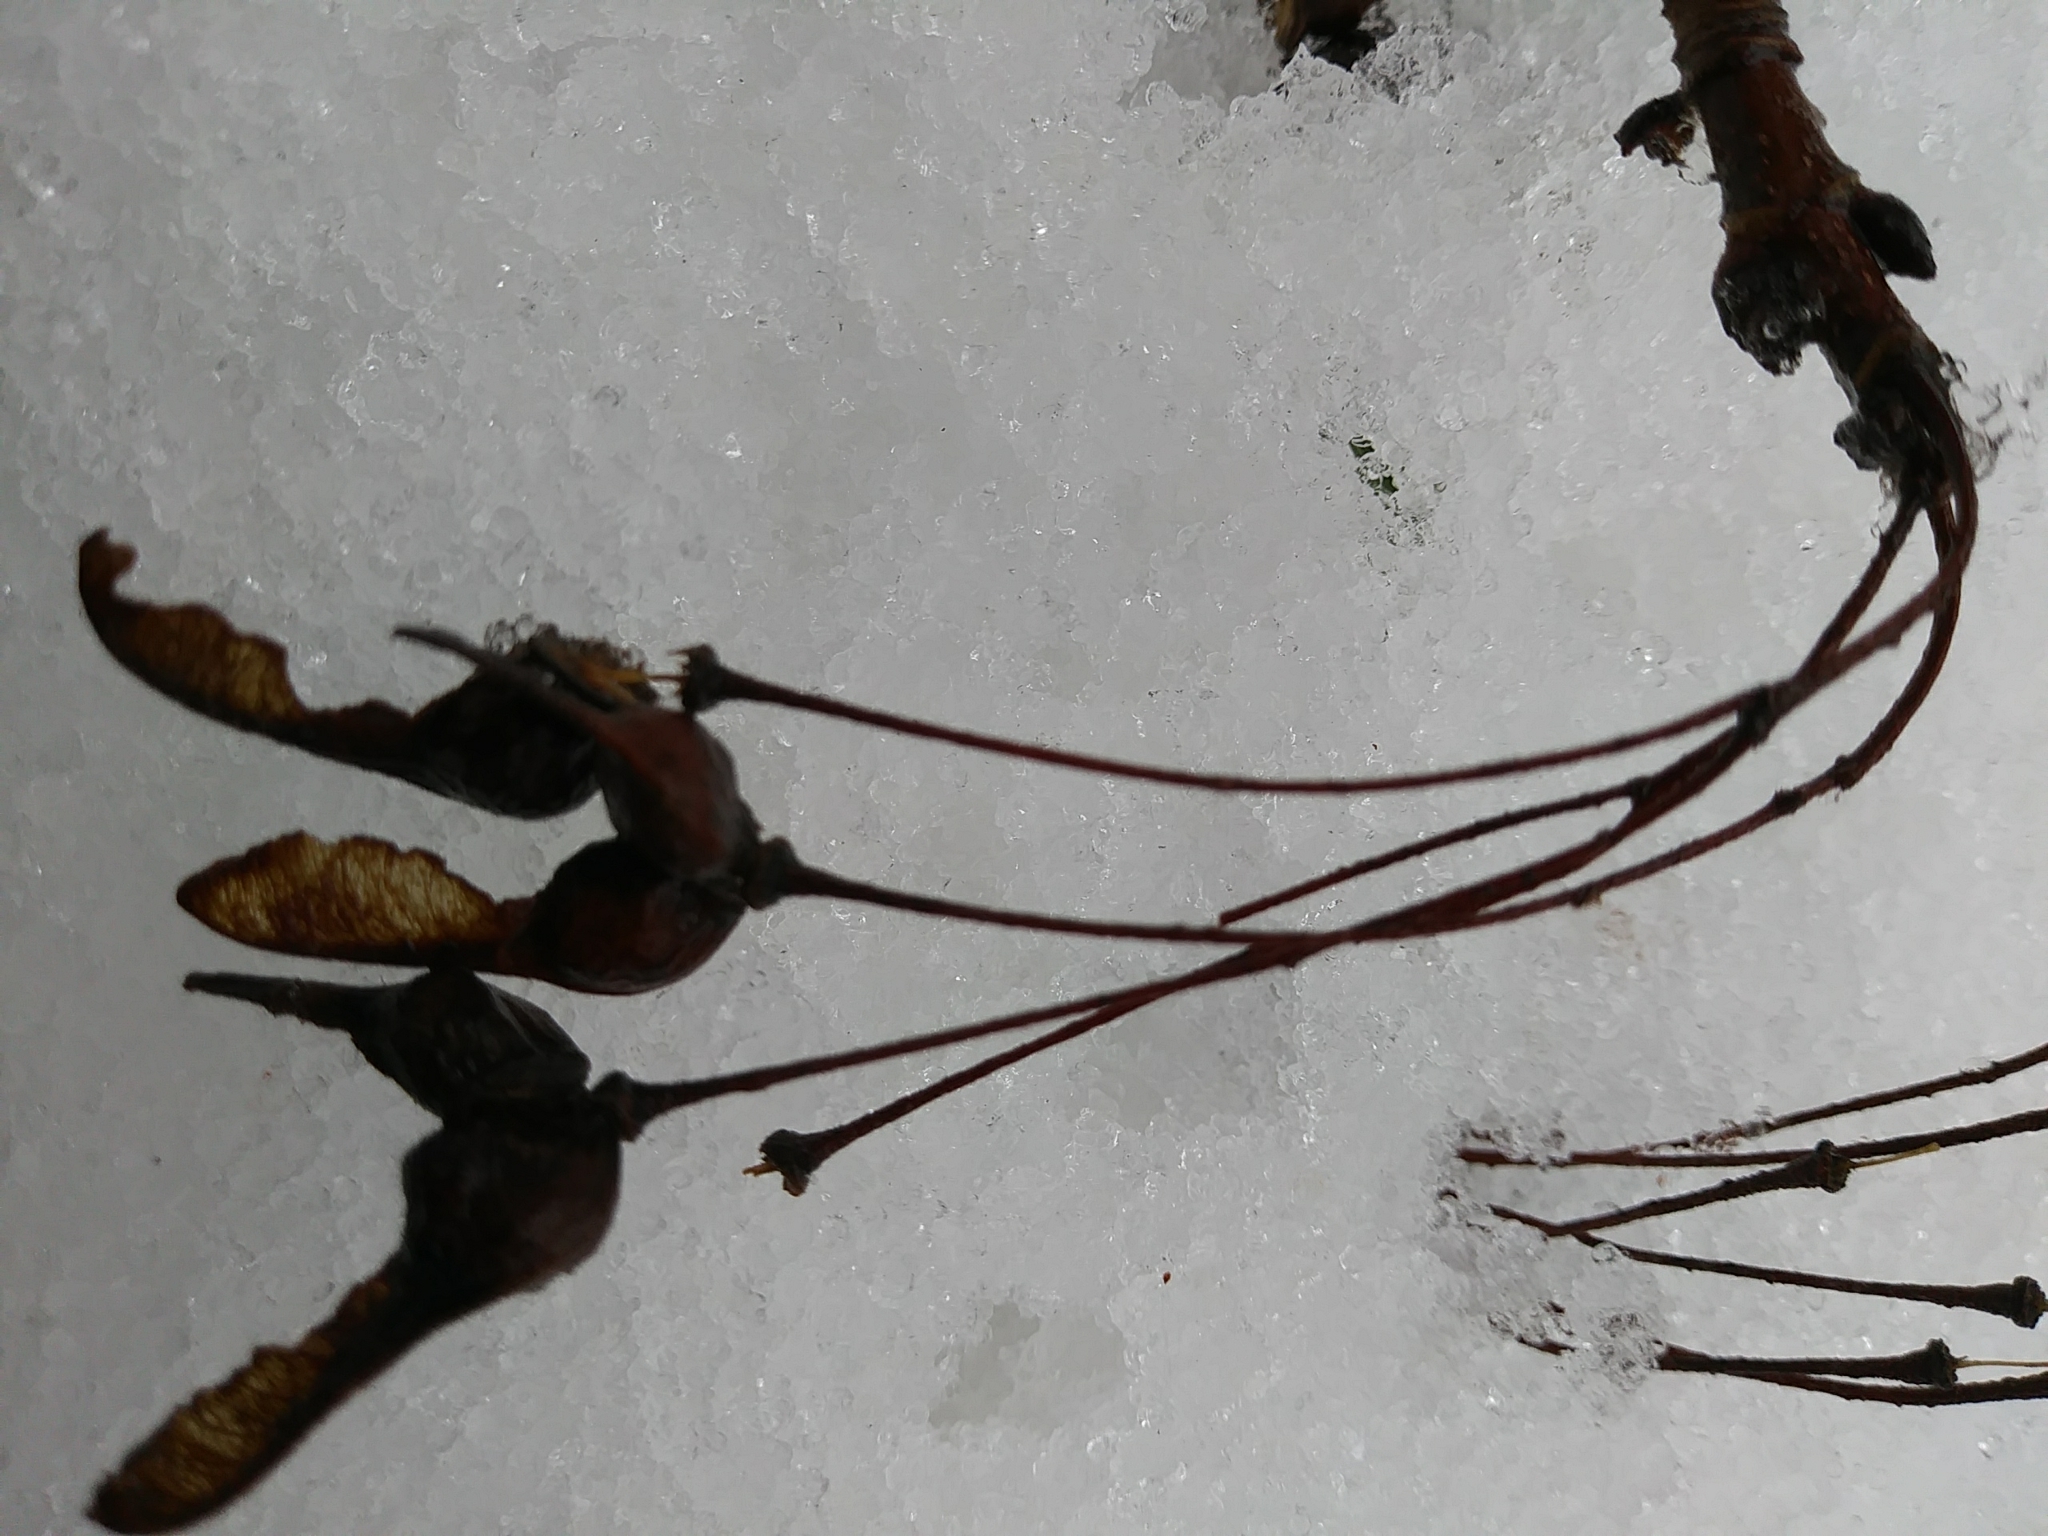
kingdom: Plantae
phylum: Tracheophyta
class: Magnoliopsida
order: Sapindales
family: Sapindaceae
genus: Acer
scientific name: Acer saccharum
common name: Sugar maple
